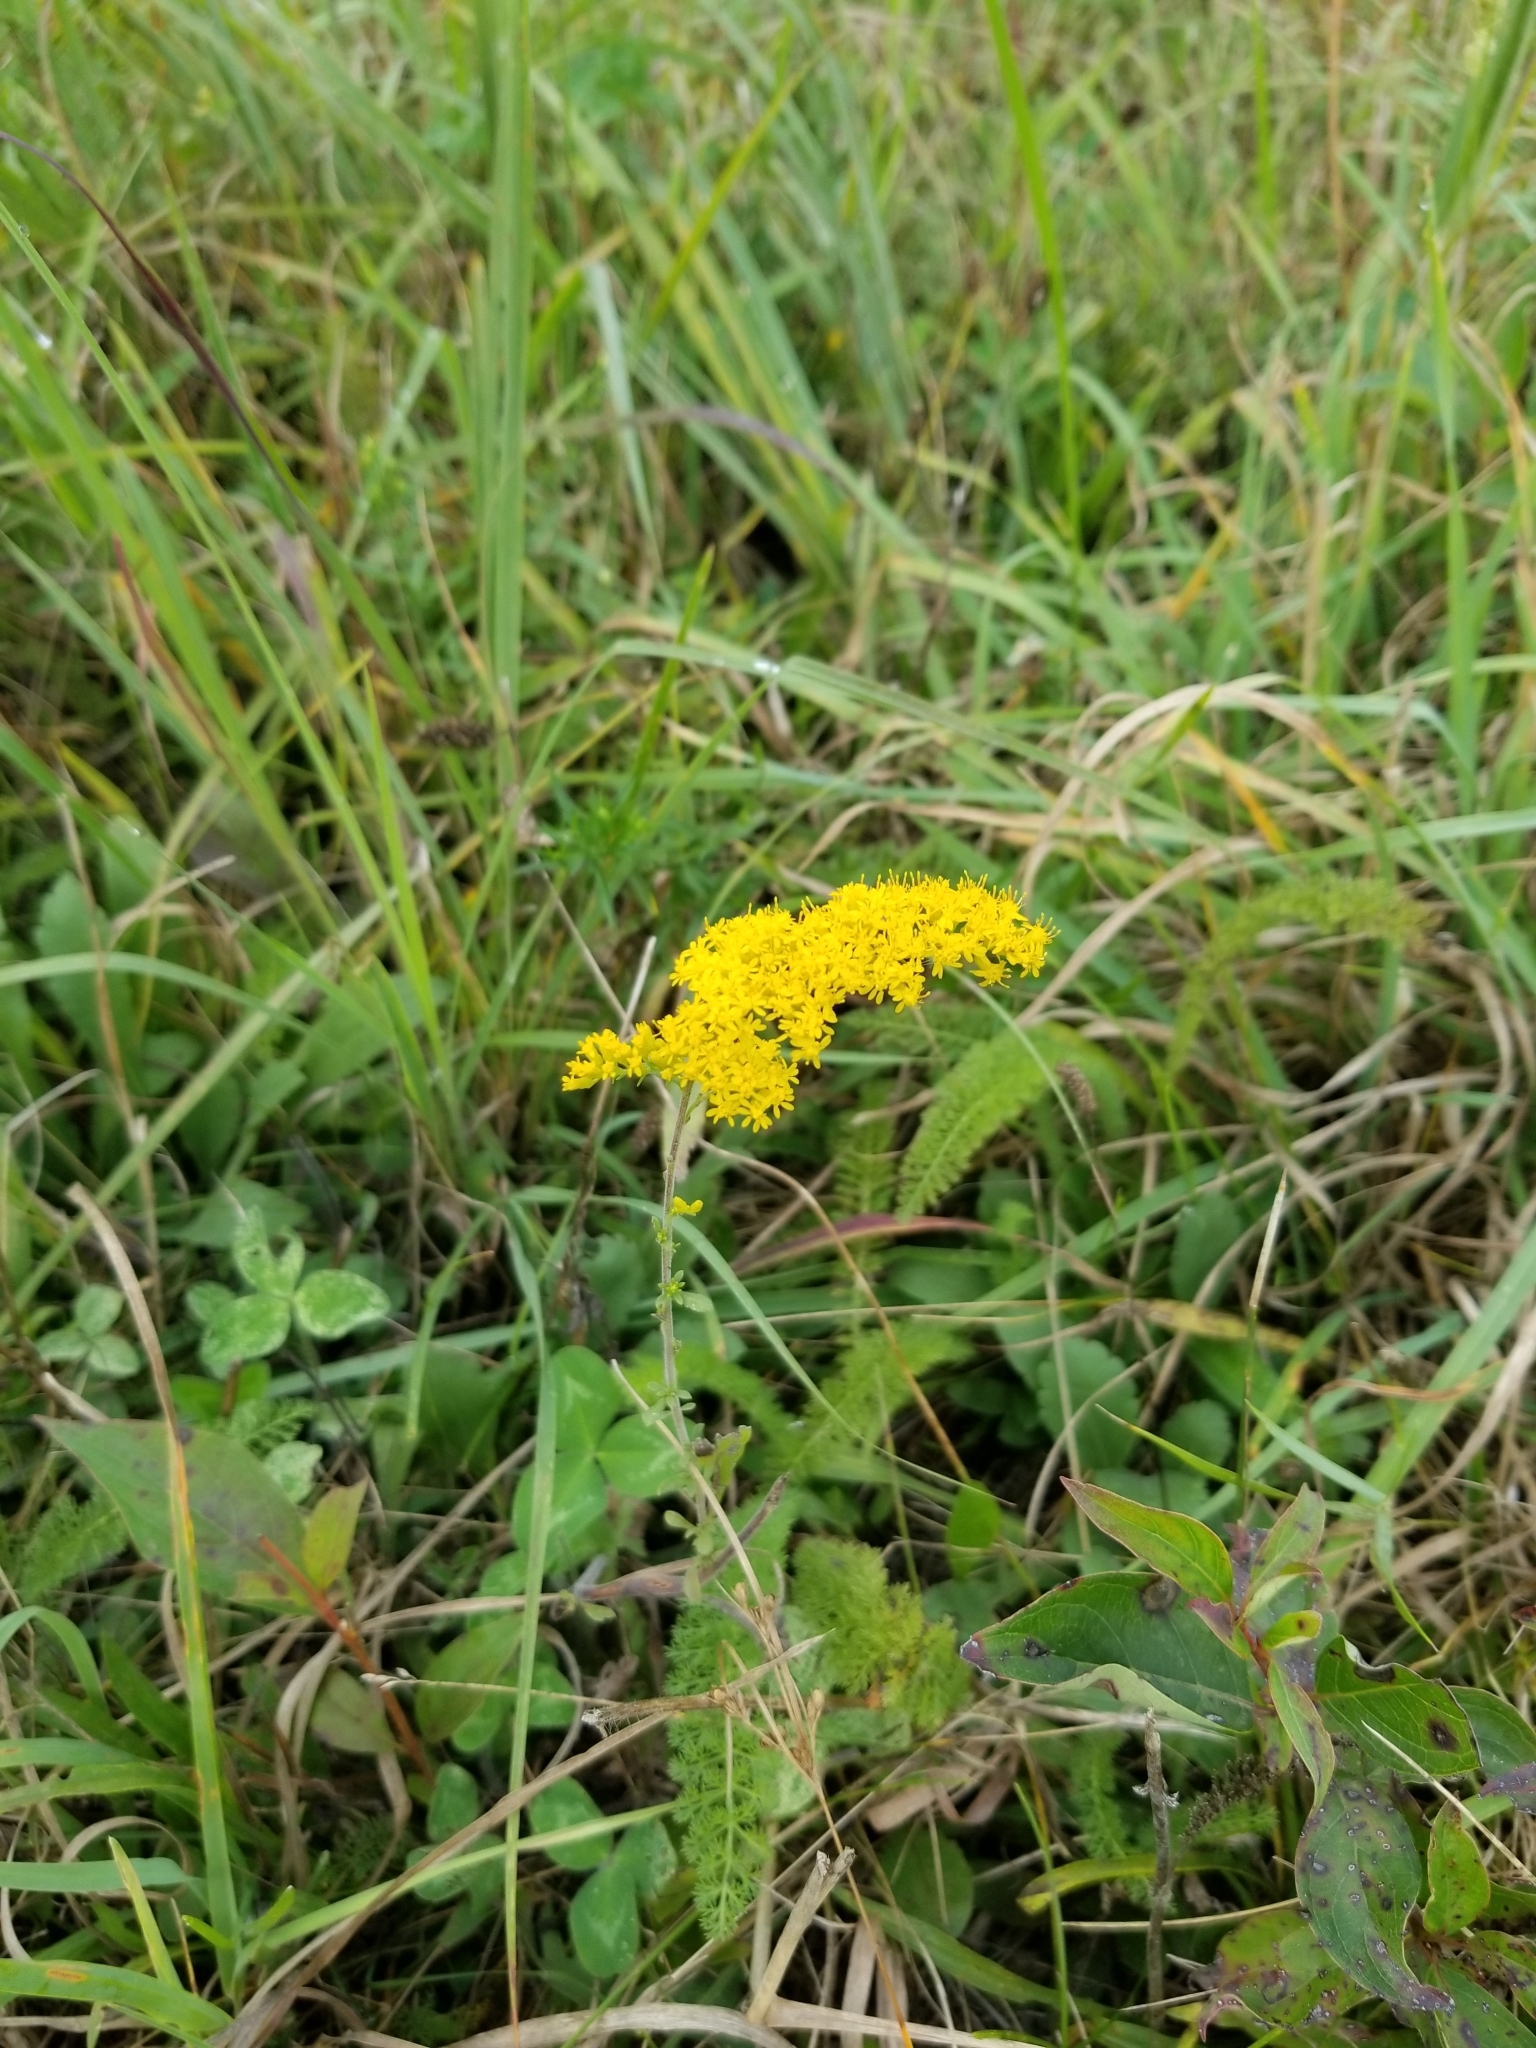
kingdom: Plantae
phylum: Tracheophyta
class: Magnoliopsida
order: Asterales
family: Asteraceae
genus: Solidago
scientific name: Solidago nemoralis
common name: Grey goldenrod
